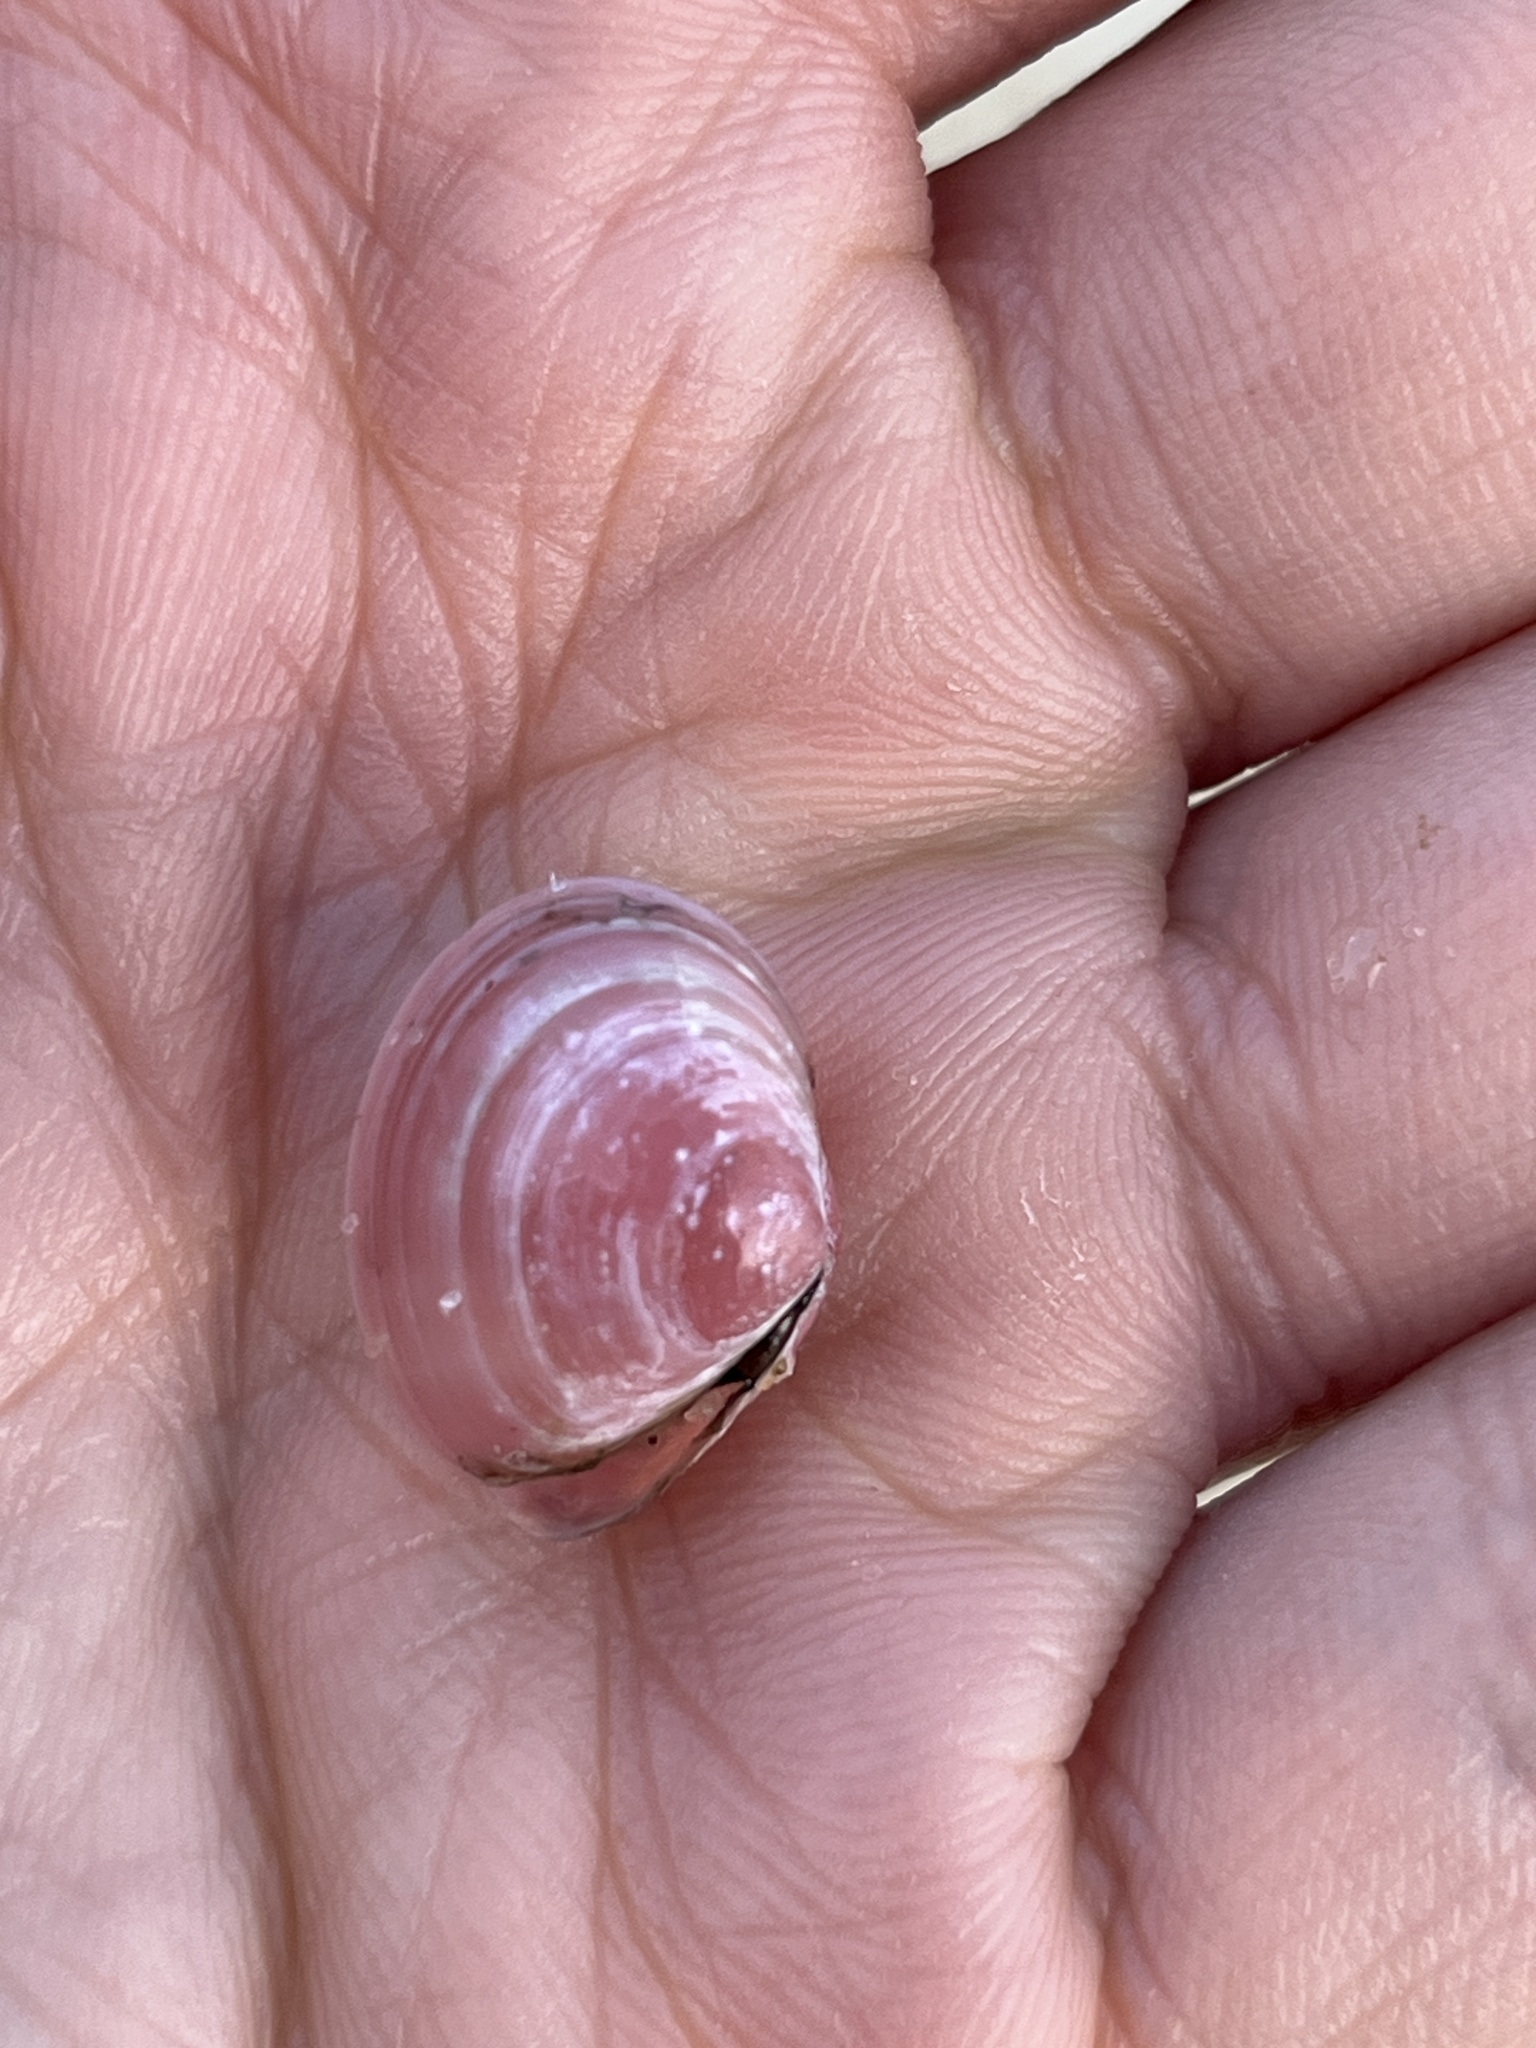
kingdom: Animalia
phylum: Mollusca
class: Bivalvia
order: Cardiida
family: Tellinidae
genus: Macoma
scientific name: Macoma balthica
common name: Baltic tellin
